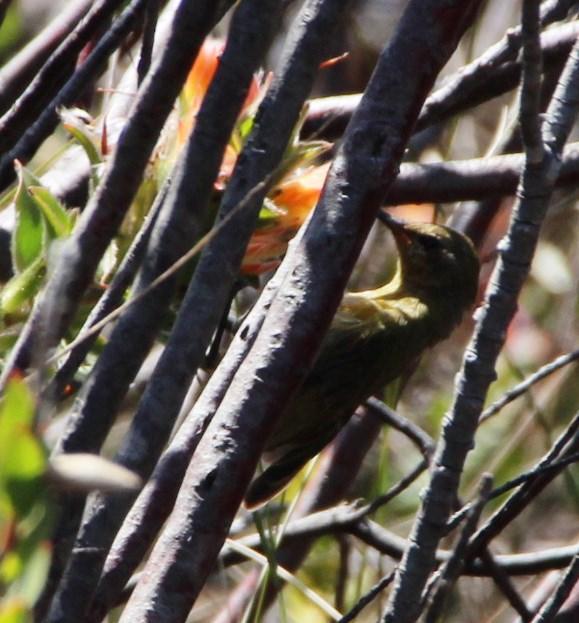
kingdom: Animalia
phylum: Chordata
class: Aves
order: Passeriformes
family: Nectariniidae
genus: Anthobaphes
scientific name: Anthobaphes violacea
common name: Orange-breasted sunbird
